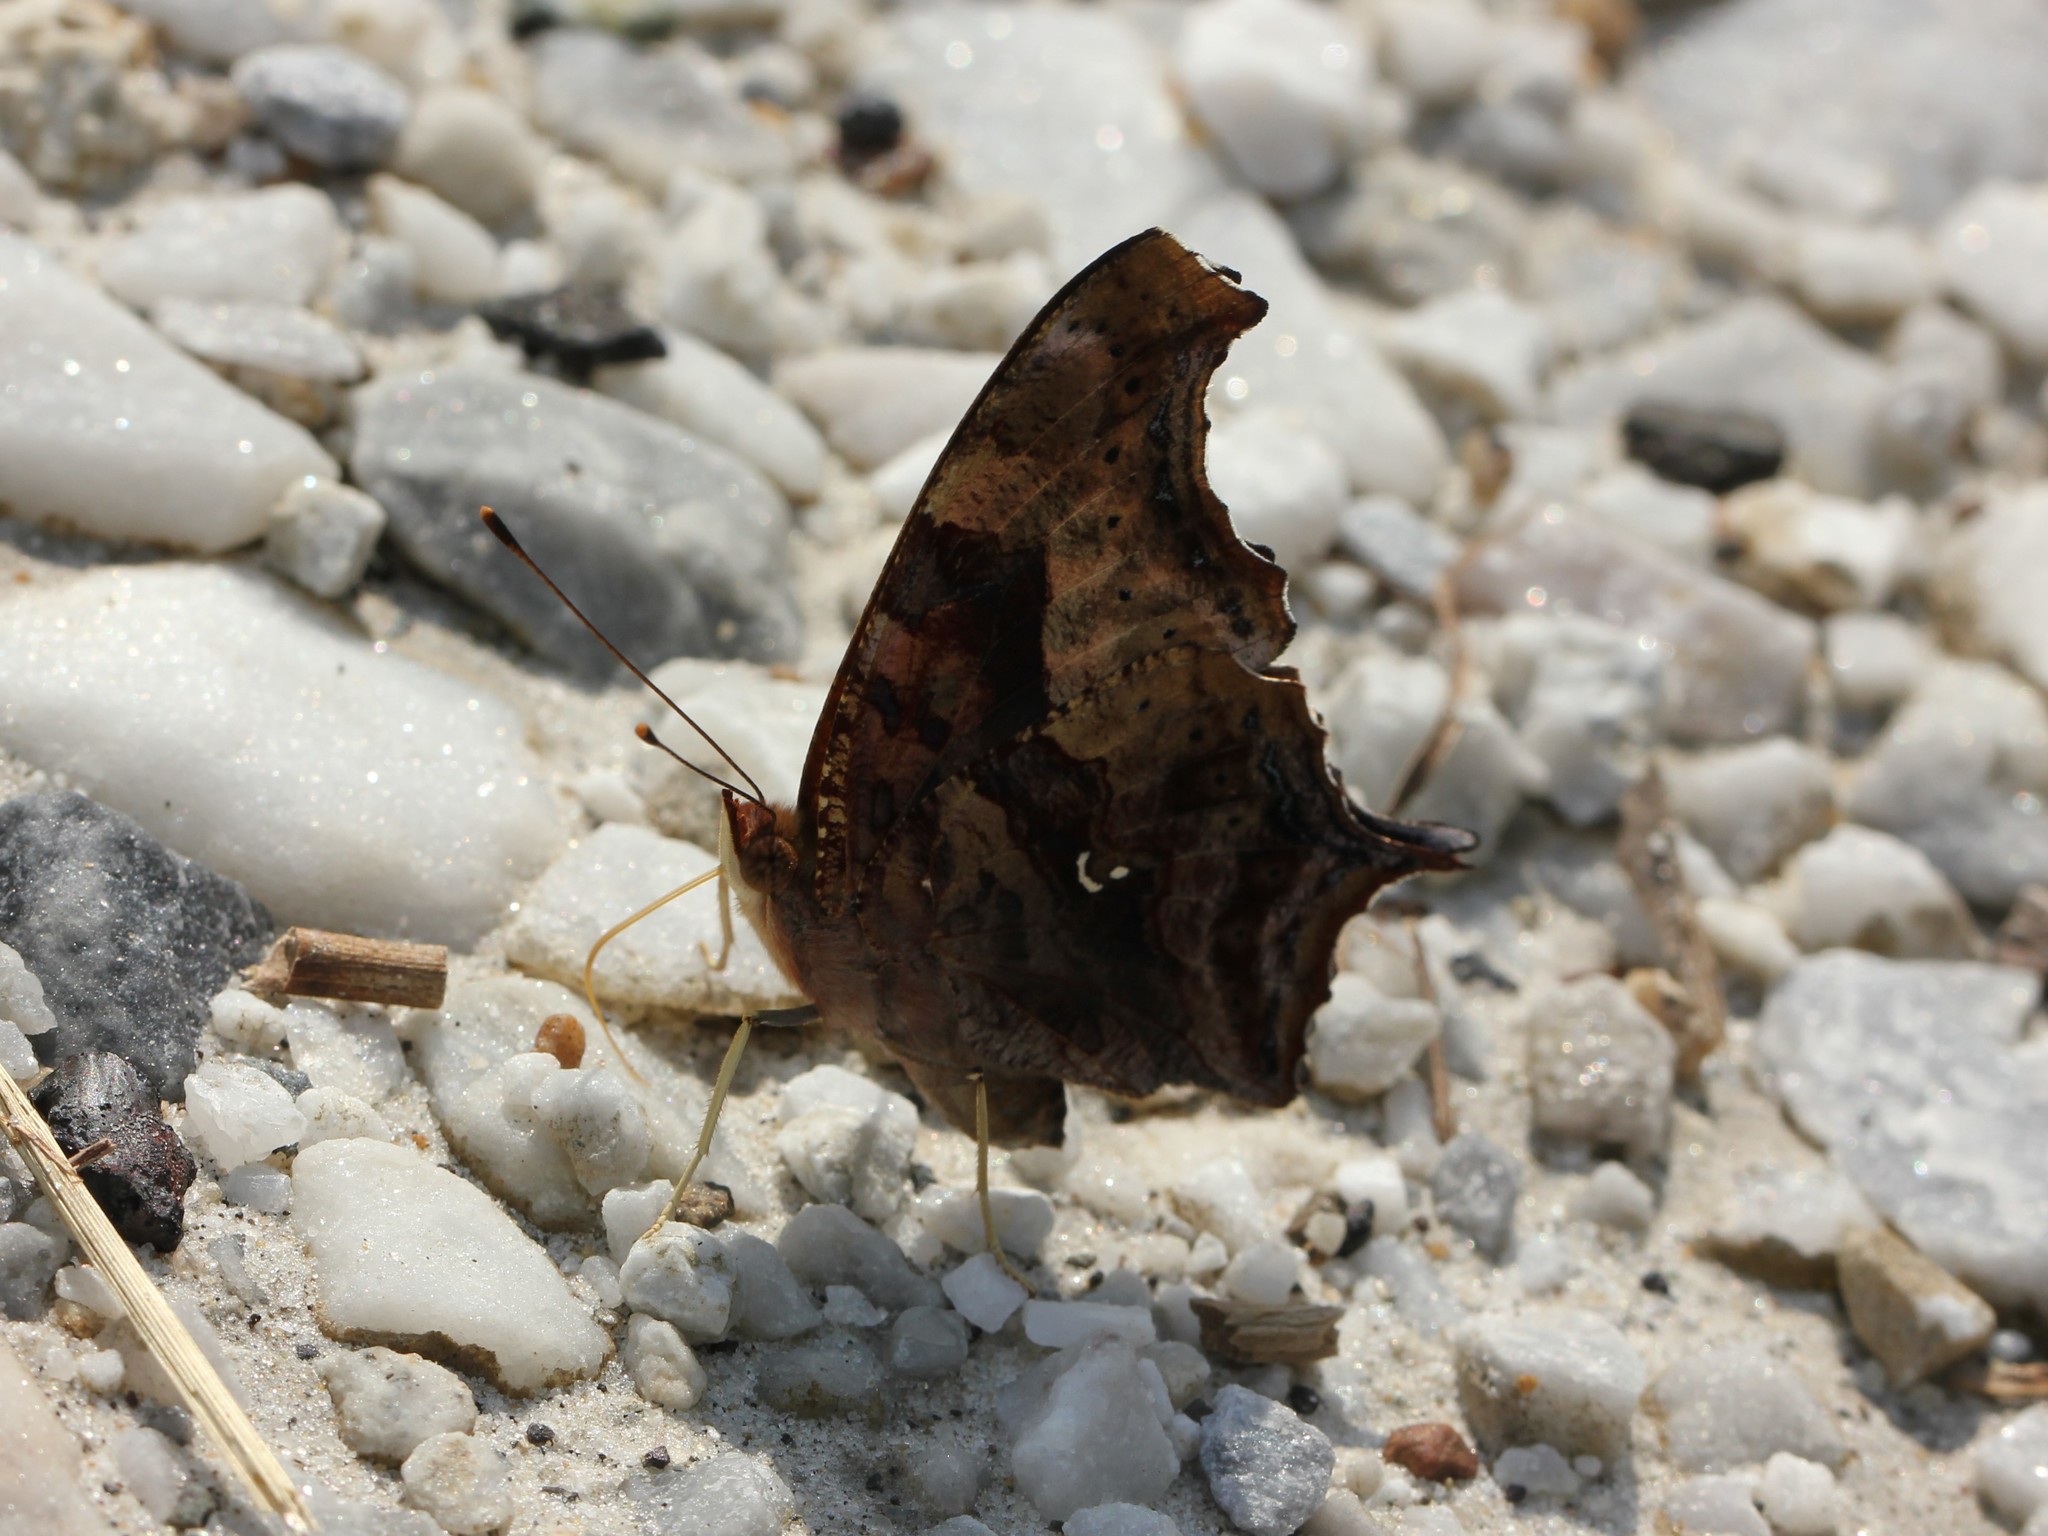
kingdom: Animalia
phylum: Arthropoda
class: Insecta
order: Lepidoptera
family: Nymphalidae
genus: Polygonia
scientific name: Polygonia interrogationis
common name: Question mark
